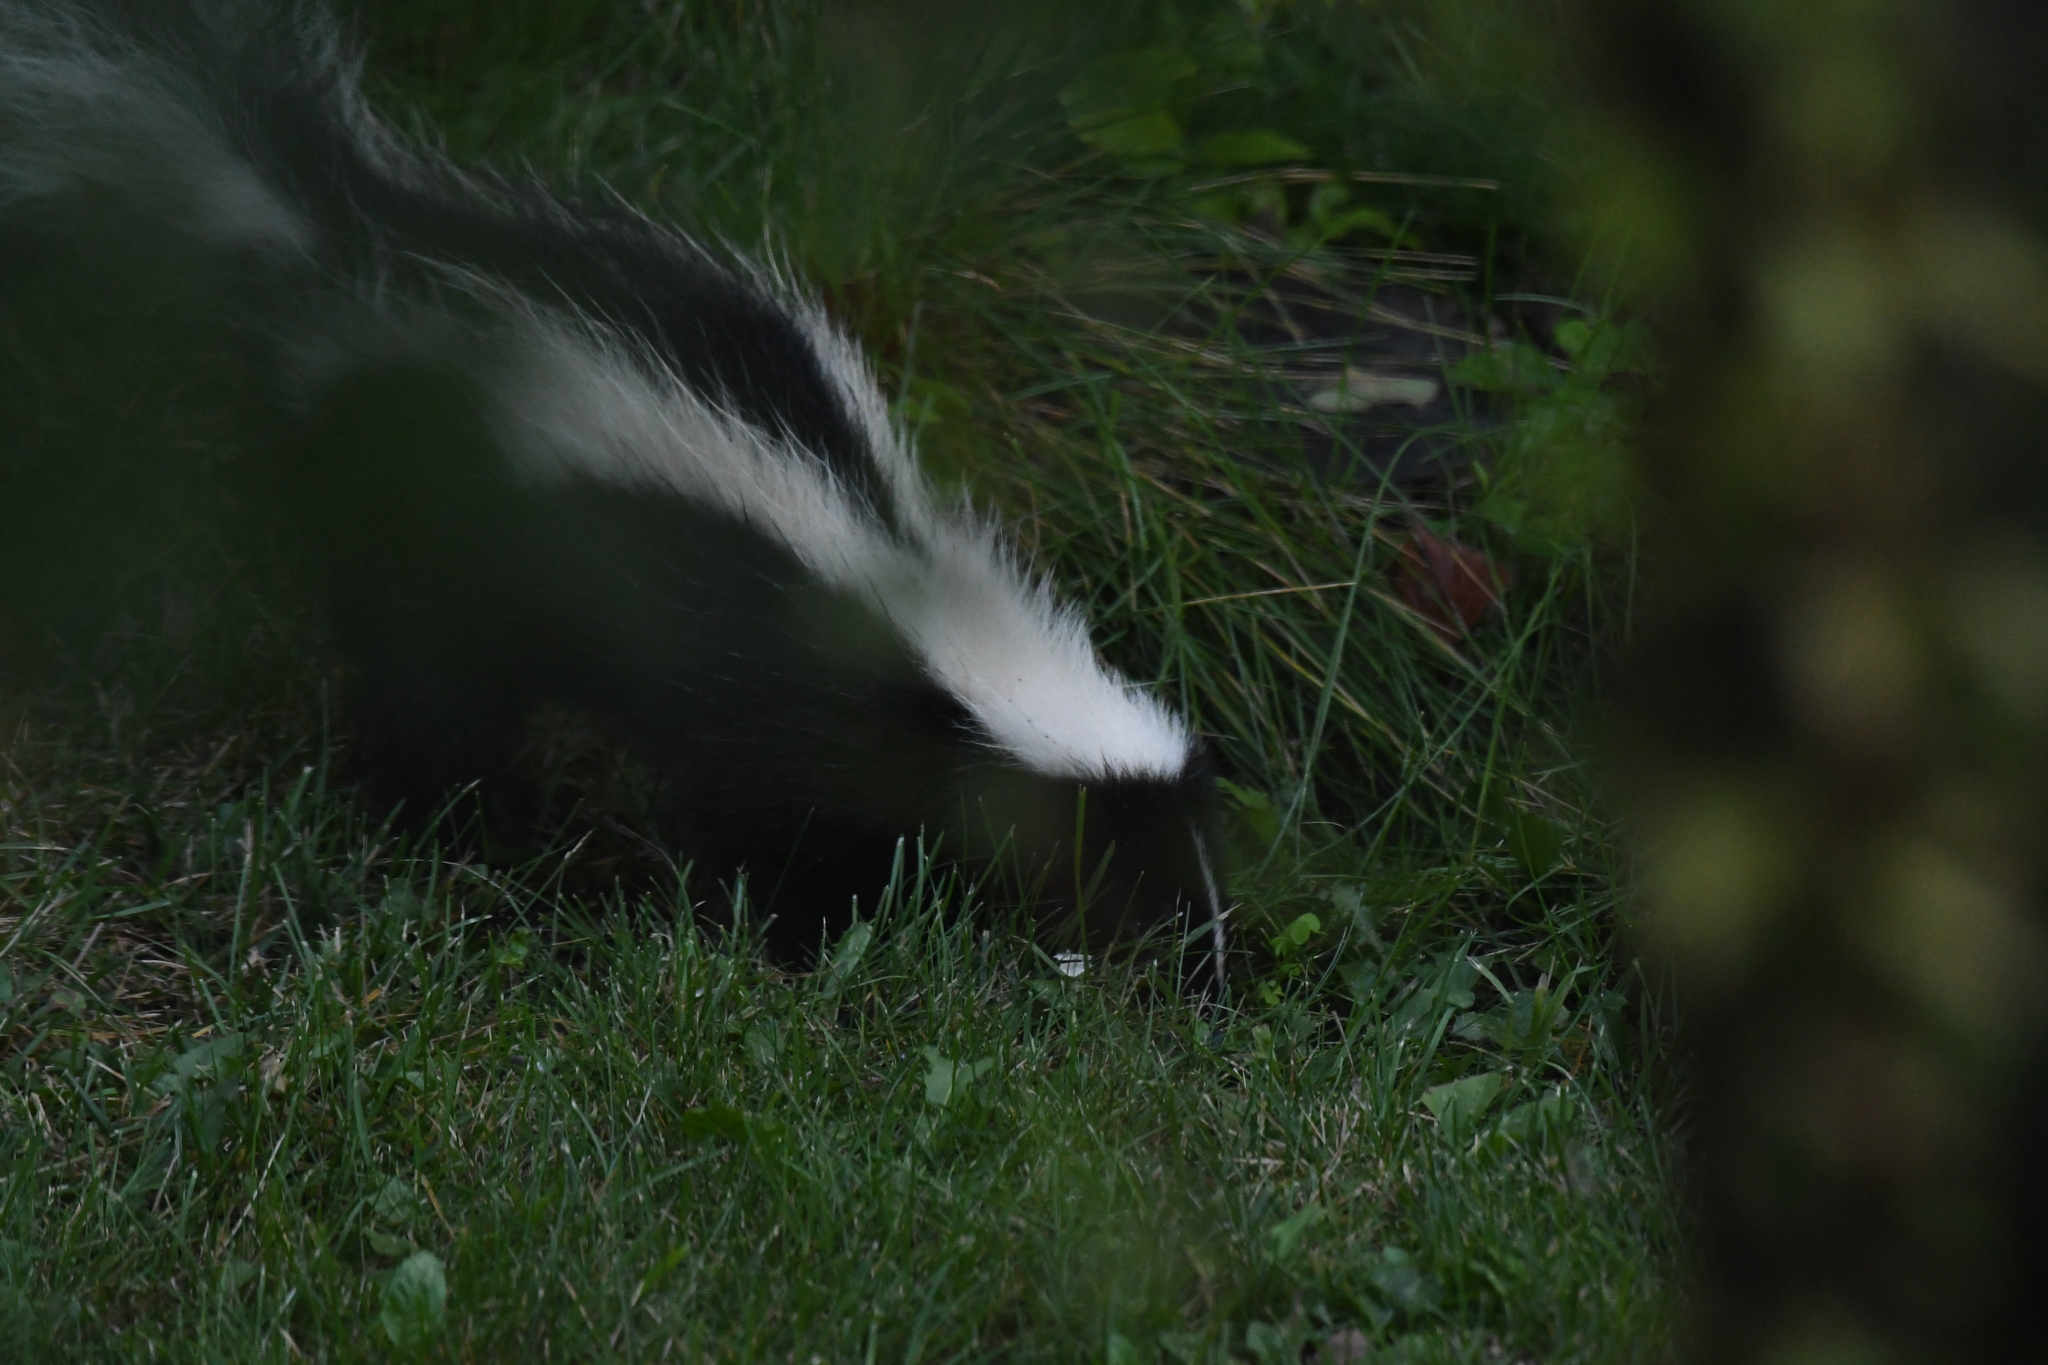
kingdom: Animalia
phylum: Chordata
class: Mammalia
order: Carnivora
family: Mephitidae
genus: Mephitis
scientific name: Mephitis mephitis
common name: Striped skunk
